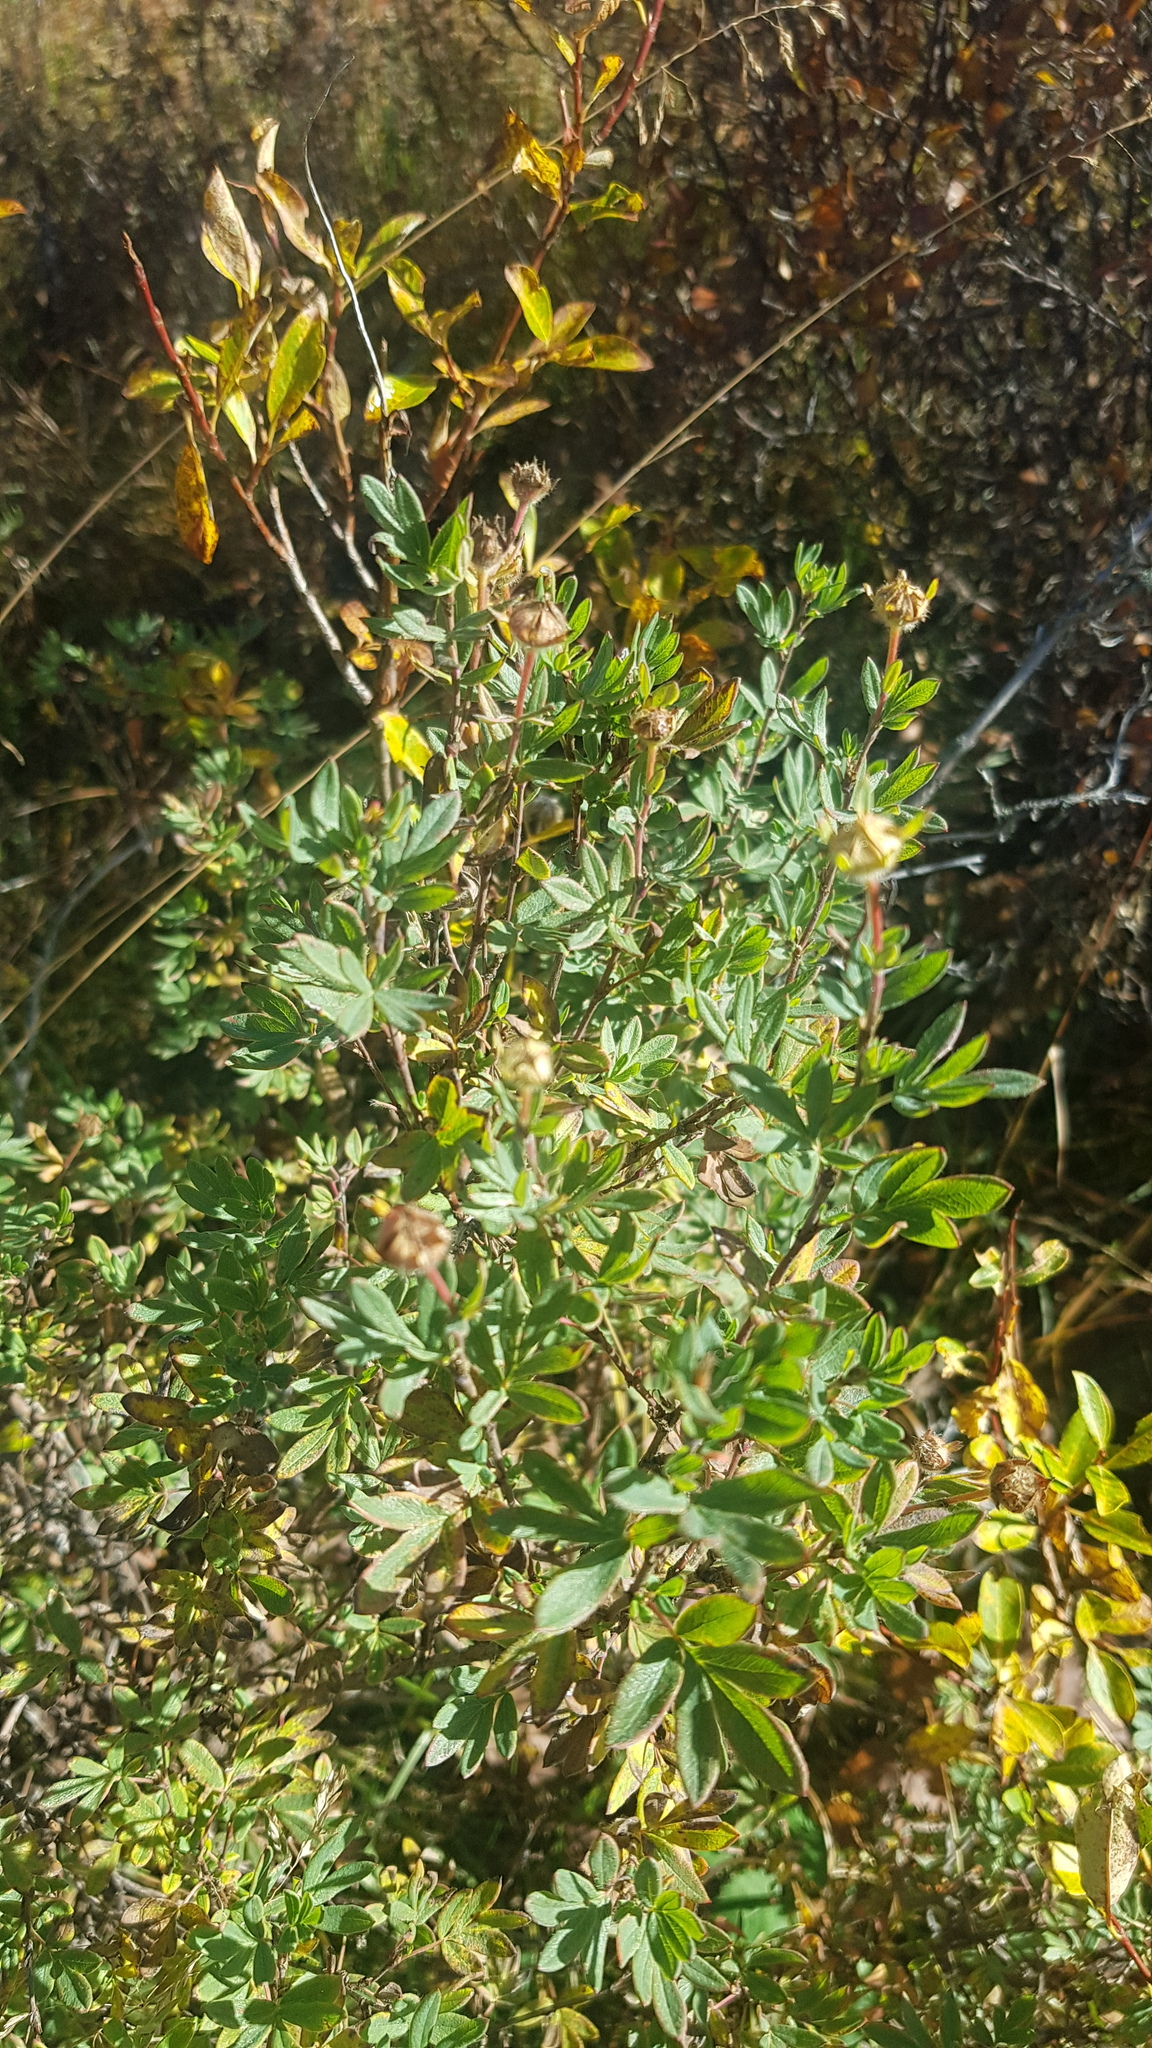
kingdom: Plantae
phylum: Tracheophyta
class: Magnoliopsida
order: Rosales
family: Rosaceae
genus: Dasiphora
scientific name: Dasiphora fruticosa
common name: Shrubby cinquefoil
